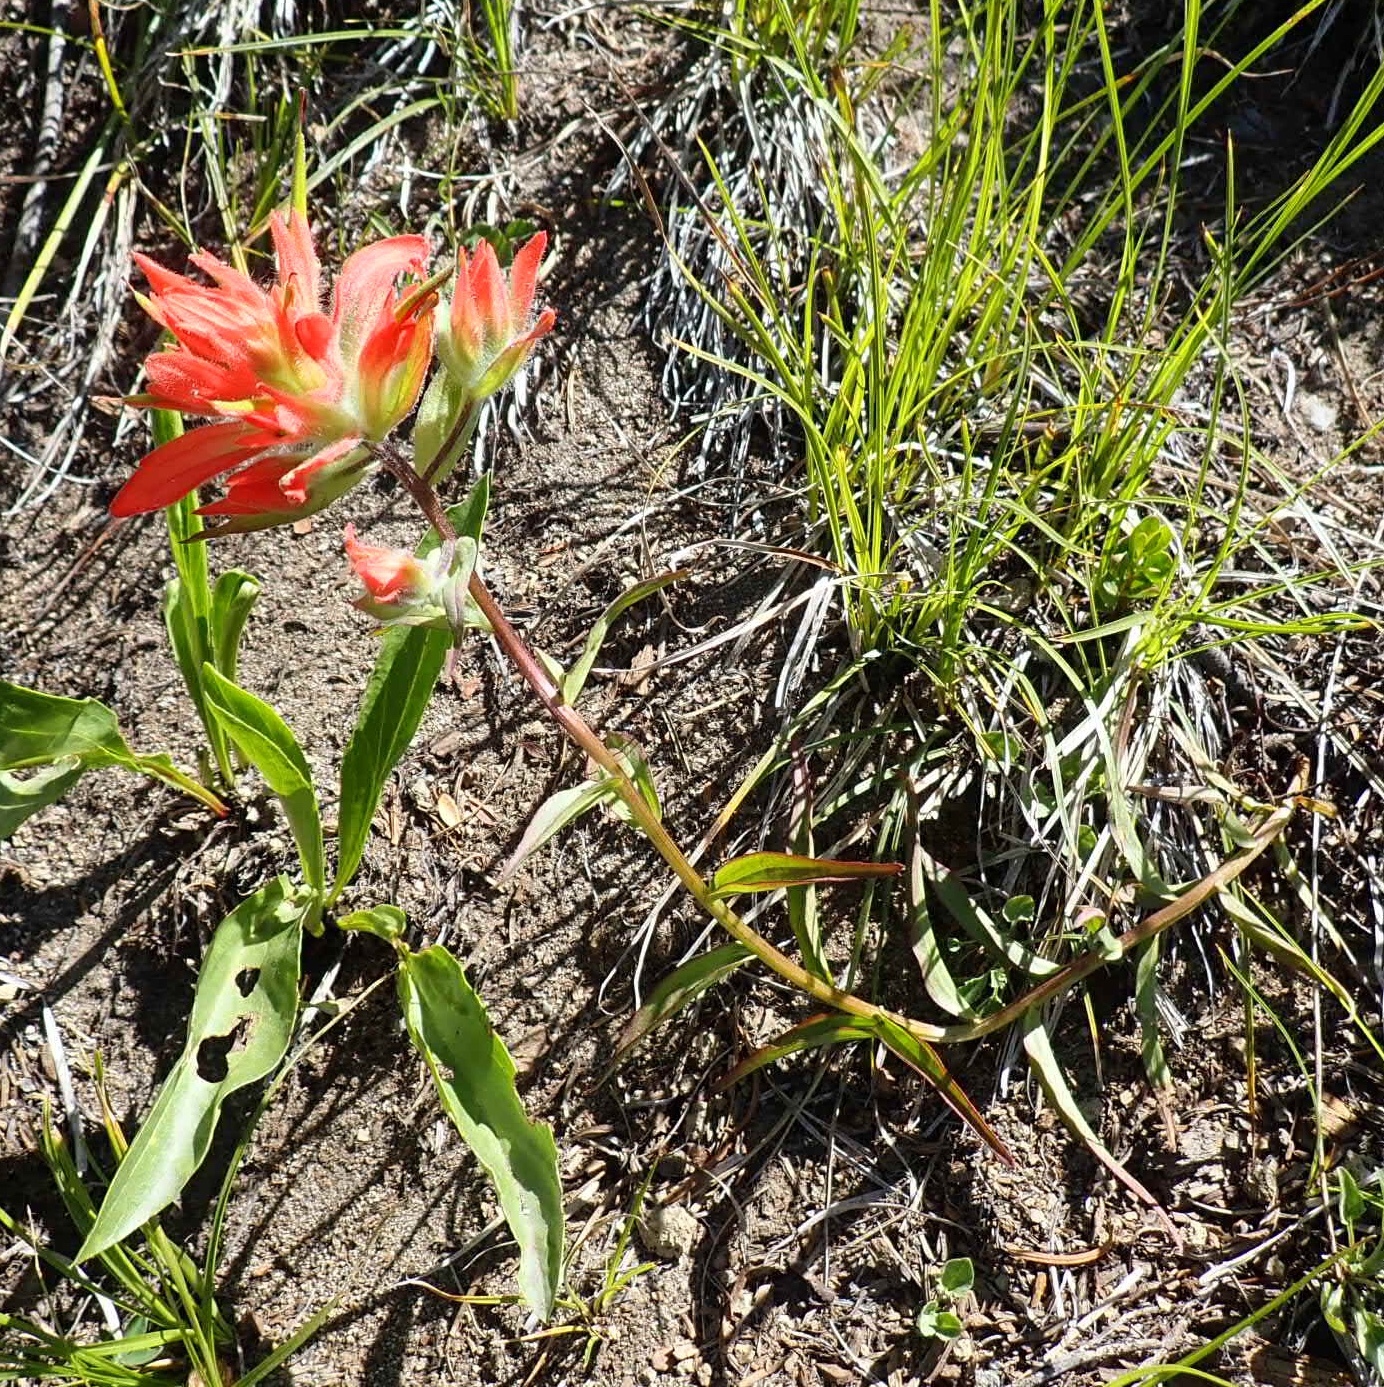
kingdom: Plantae
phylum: Tracheophyta
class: Magnoliopsida
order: Lamiales
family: Orobanchaceae
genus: Castilleja
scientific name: Castilleja miniata
